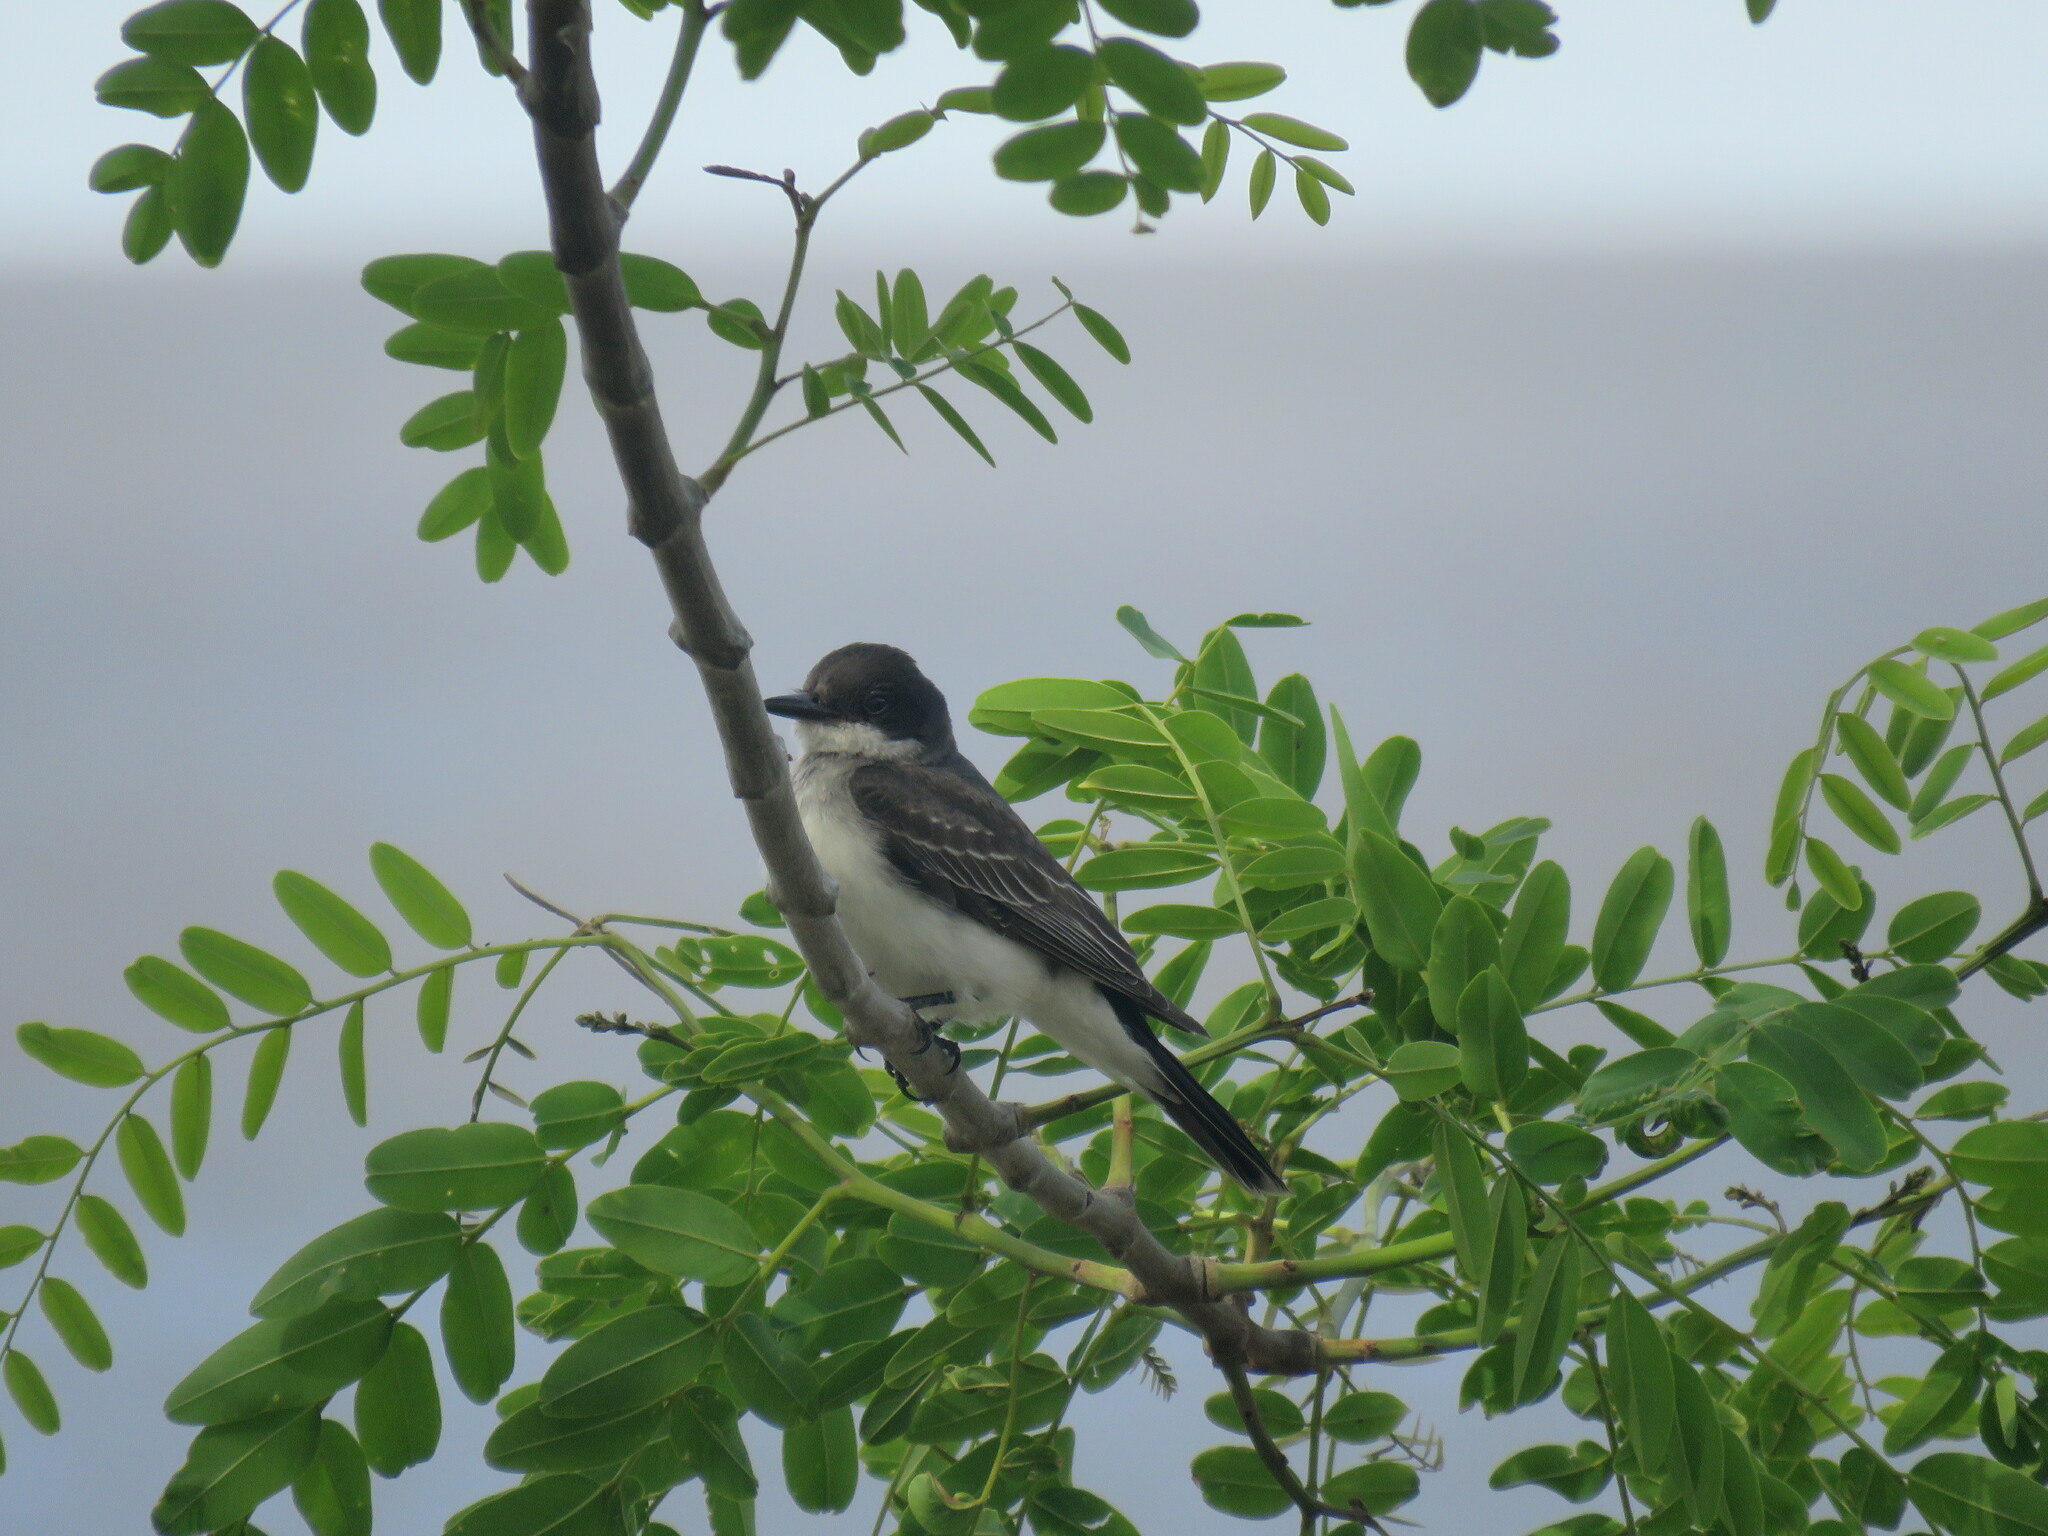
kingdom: Animalia
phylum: Chordata
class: Aves
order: Passeriformes
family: Tyrannidae
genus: Tyrannus
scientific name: Tyrannus tyrannus
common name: Eastern kingbird
